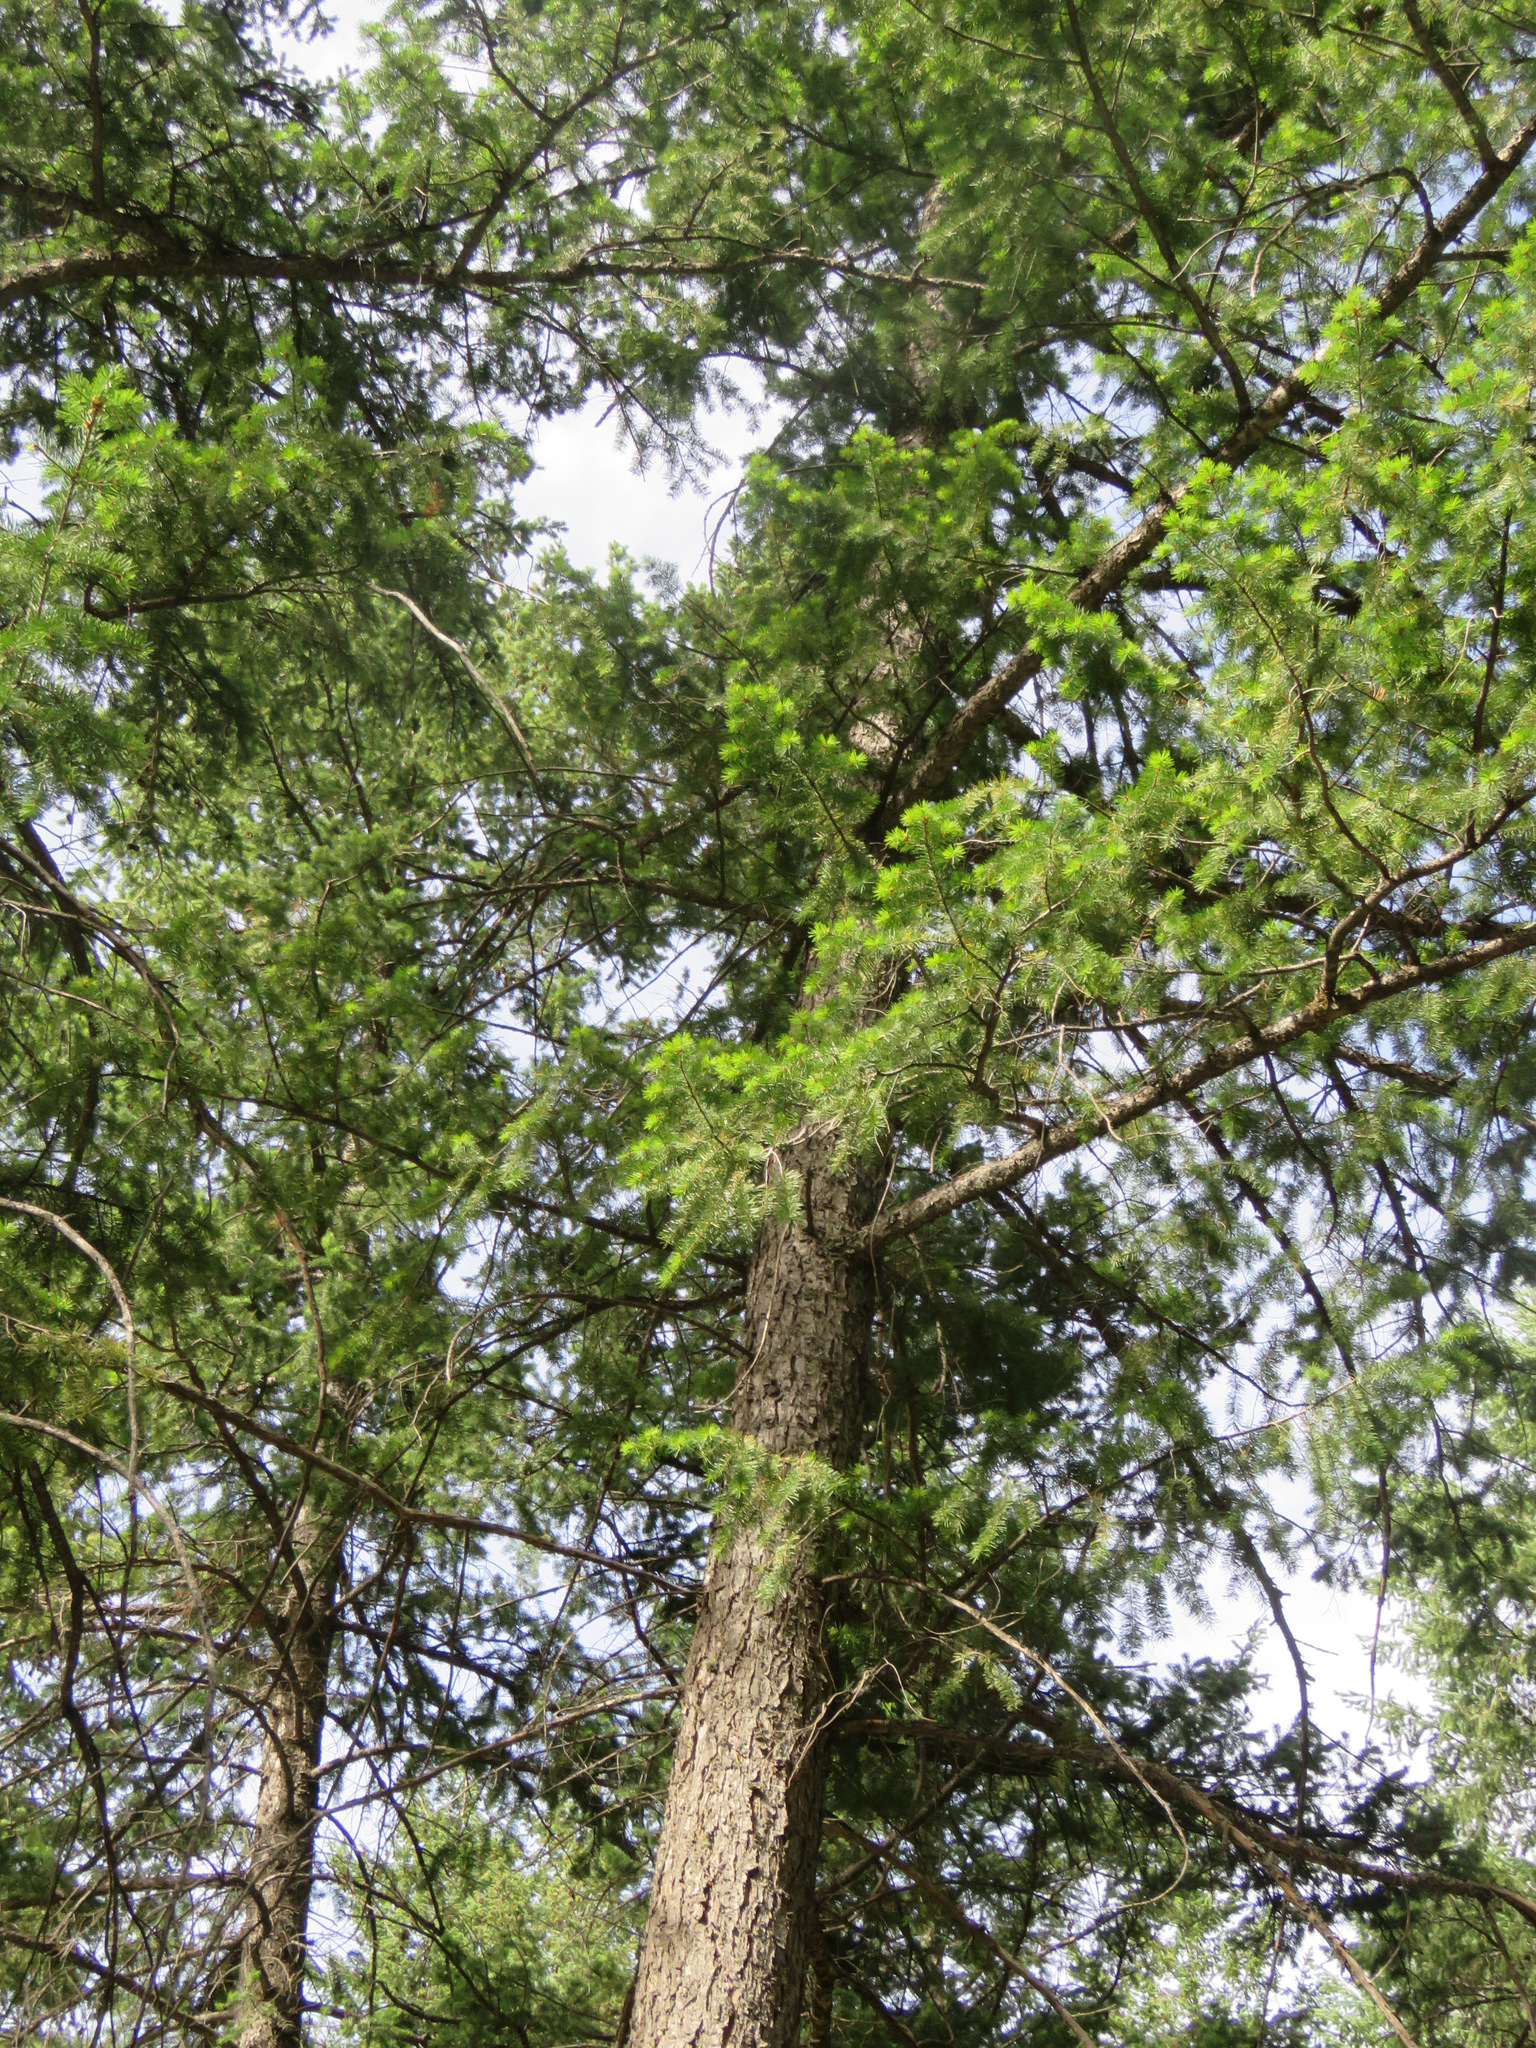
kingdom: Plantae
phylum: Tracheophyta
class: Pinopsida
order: Pinales
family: Pinaceae
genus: Pseudotsuga
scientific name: Pseudotsuga menziesii
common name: Douglas fir
